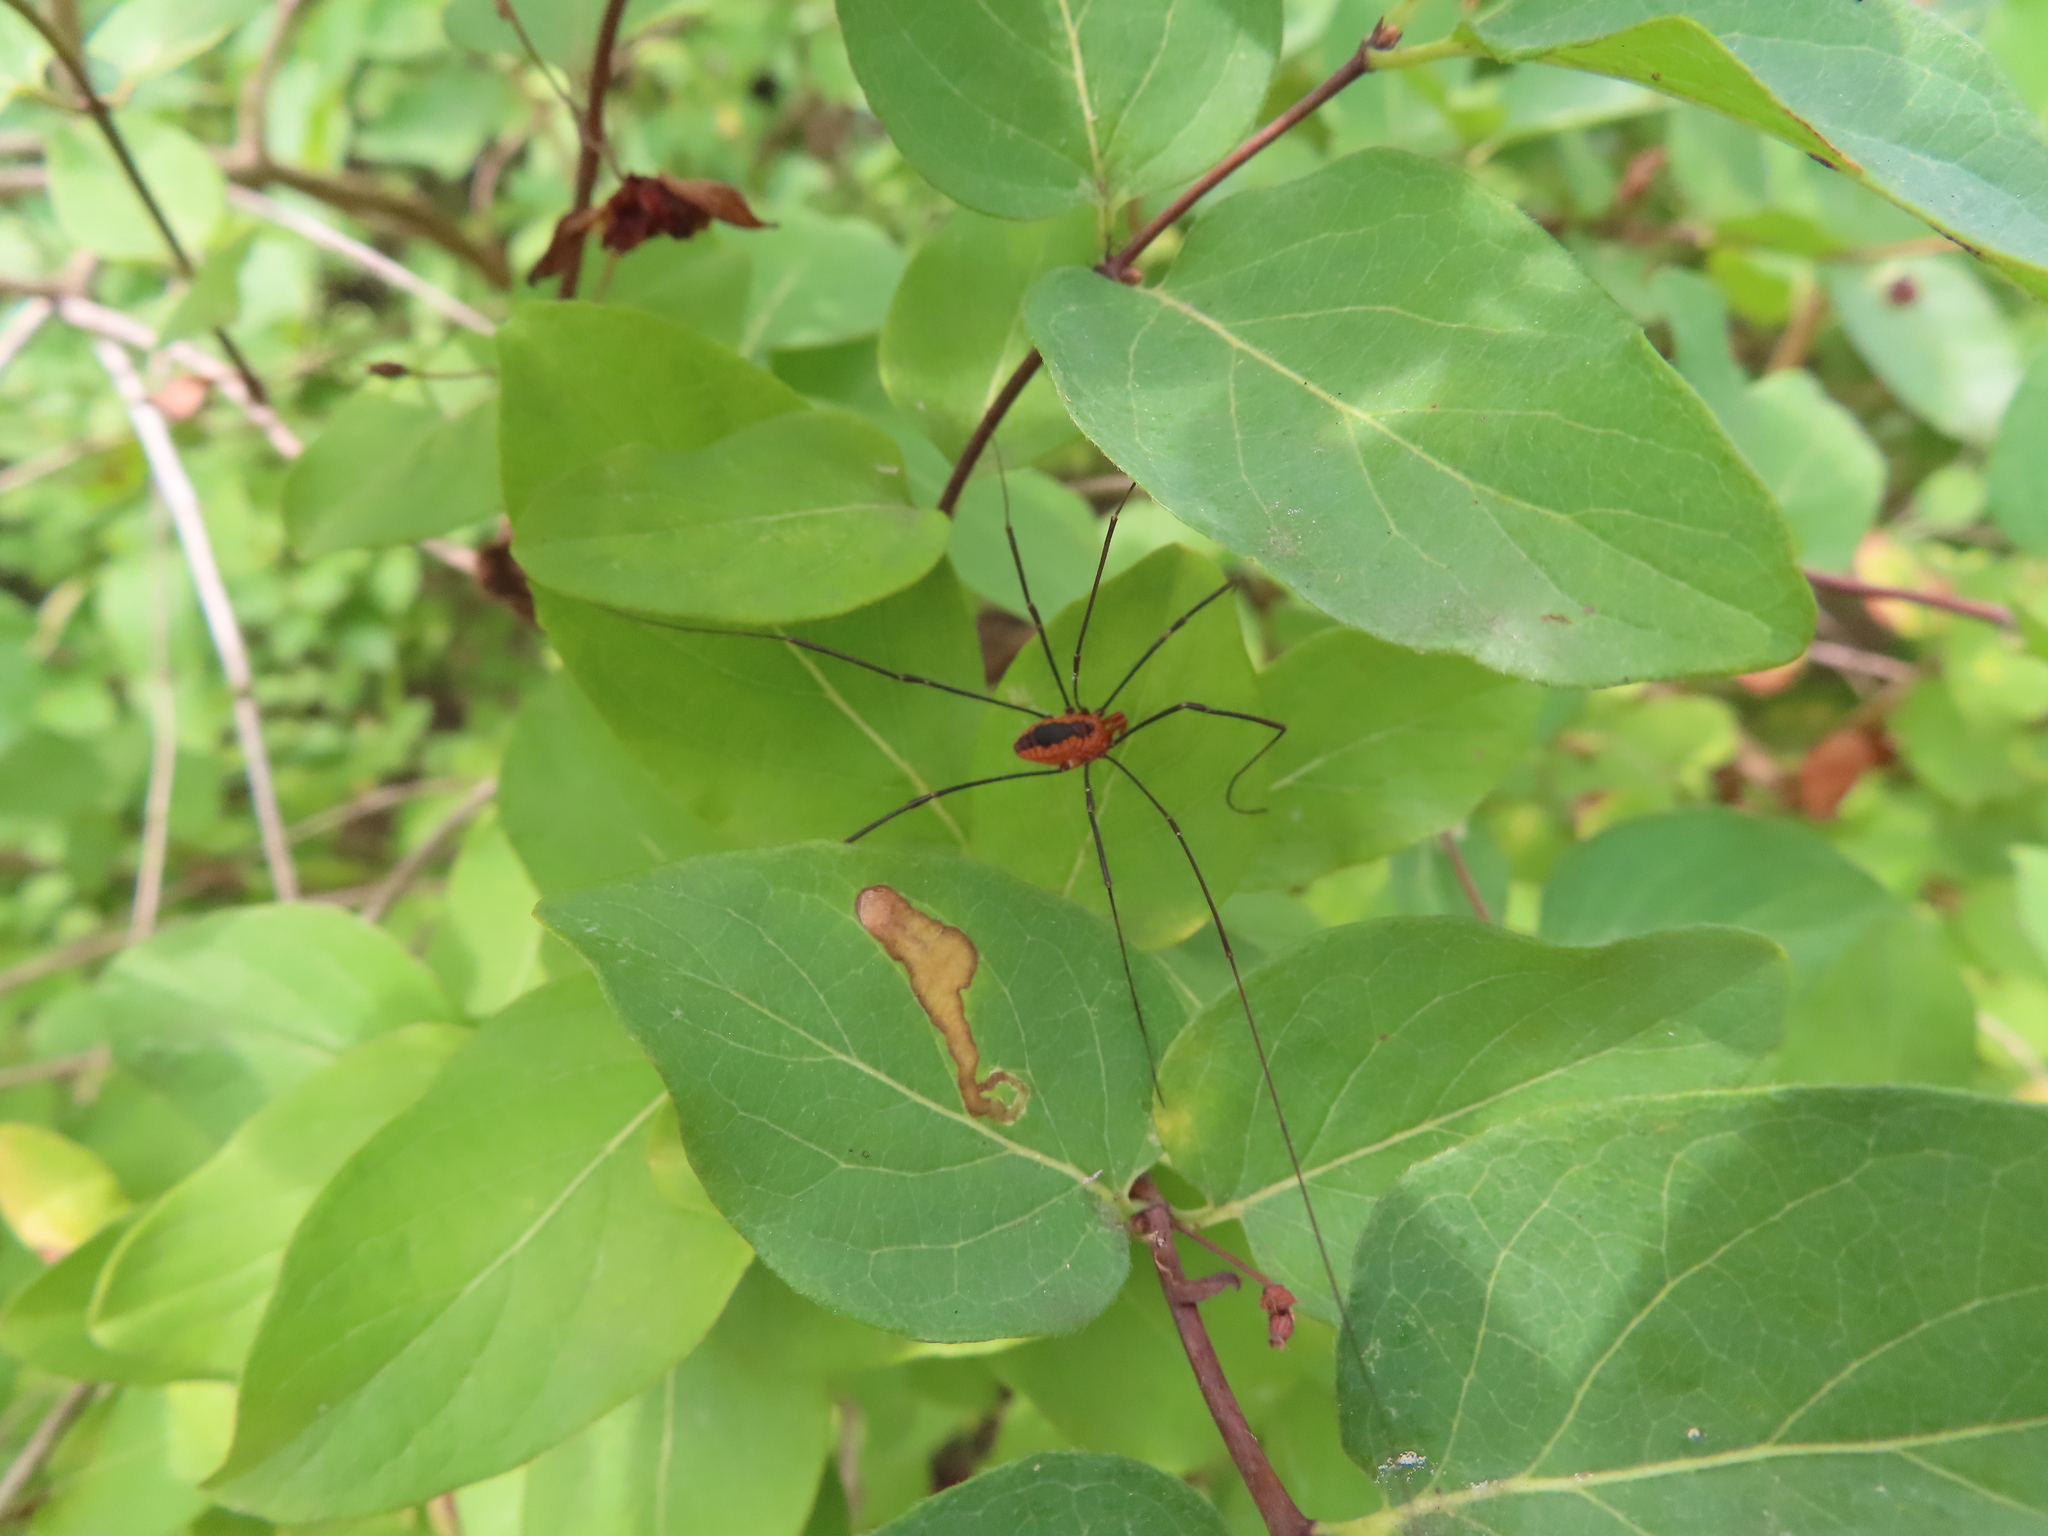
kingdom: Animalia
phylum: Arthropoda
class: Arachnida
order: Opiliones
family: Sclerosomatidae
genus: Leiobunum
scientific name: Leiobunum vittatum
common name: Eastern harvestman
